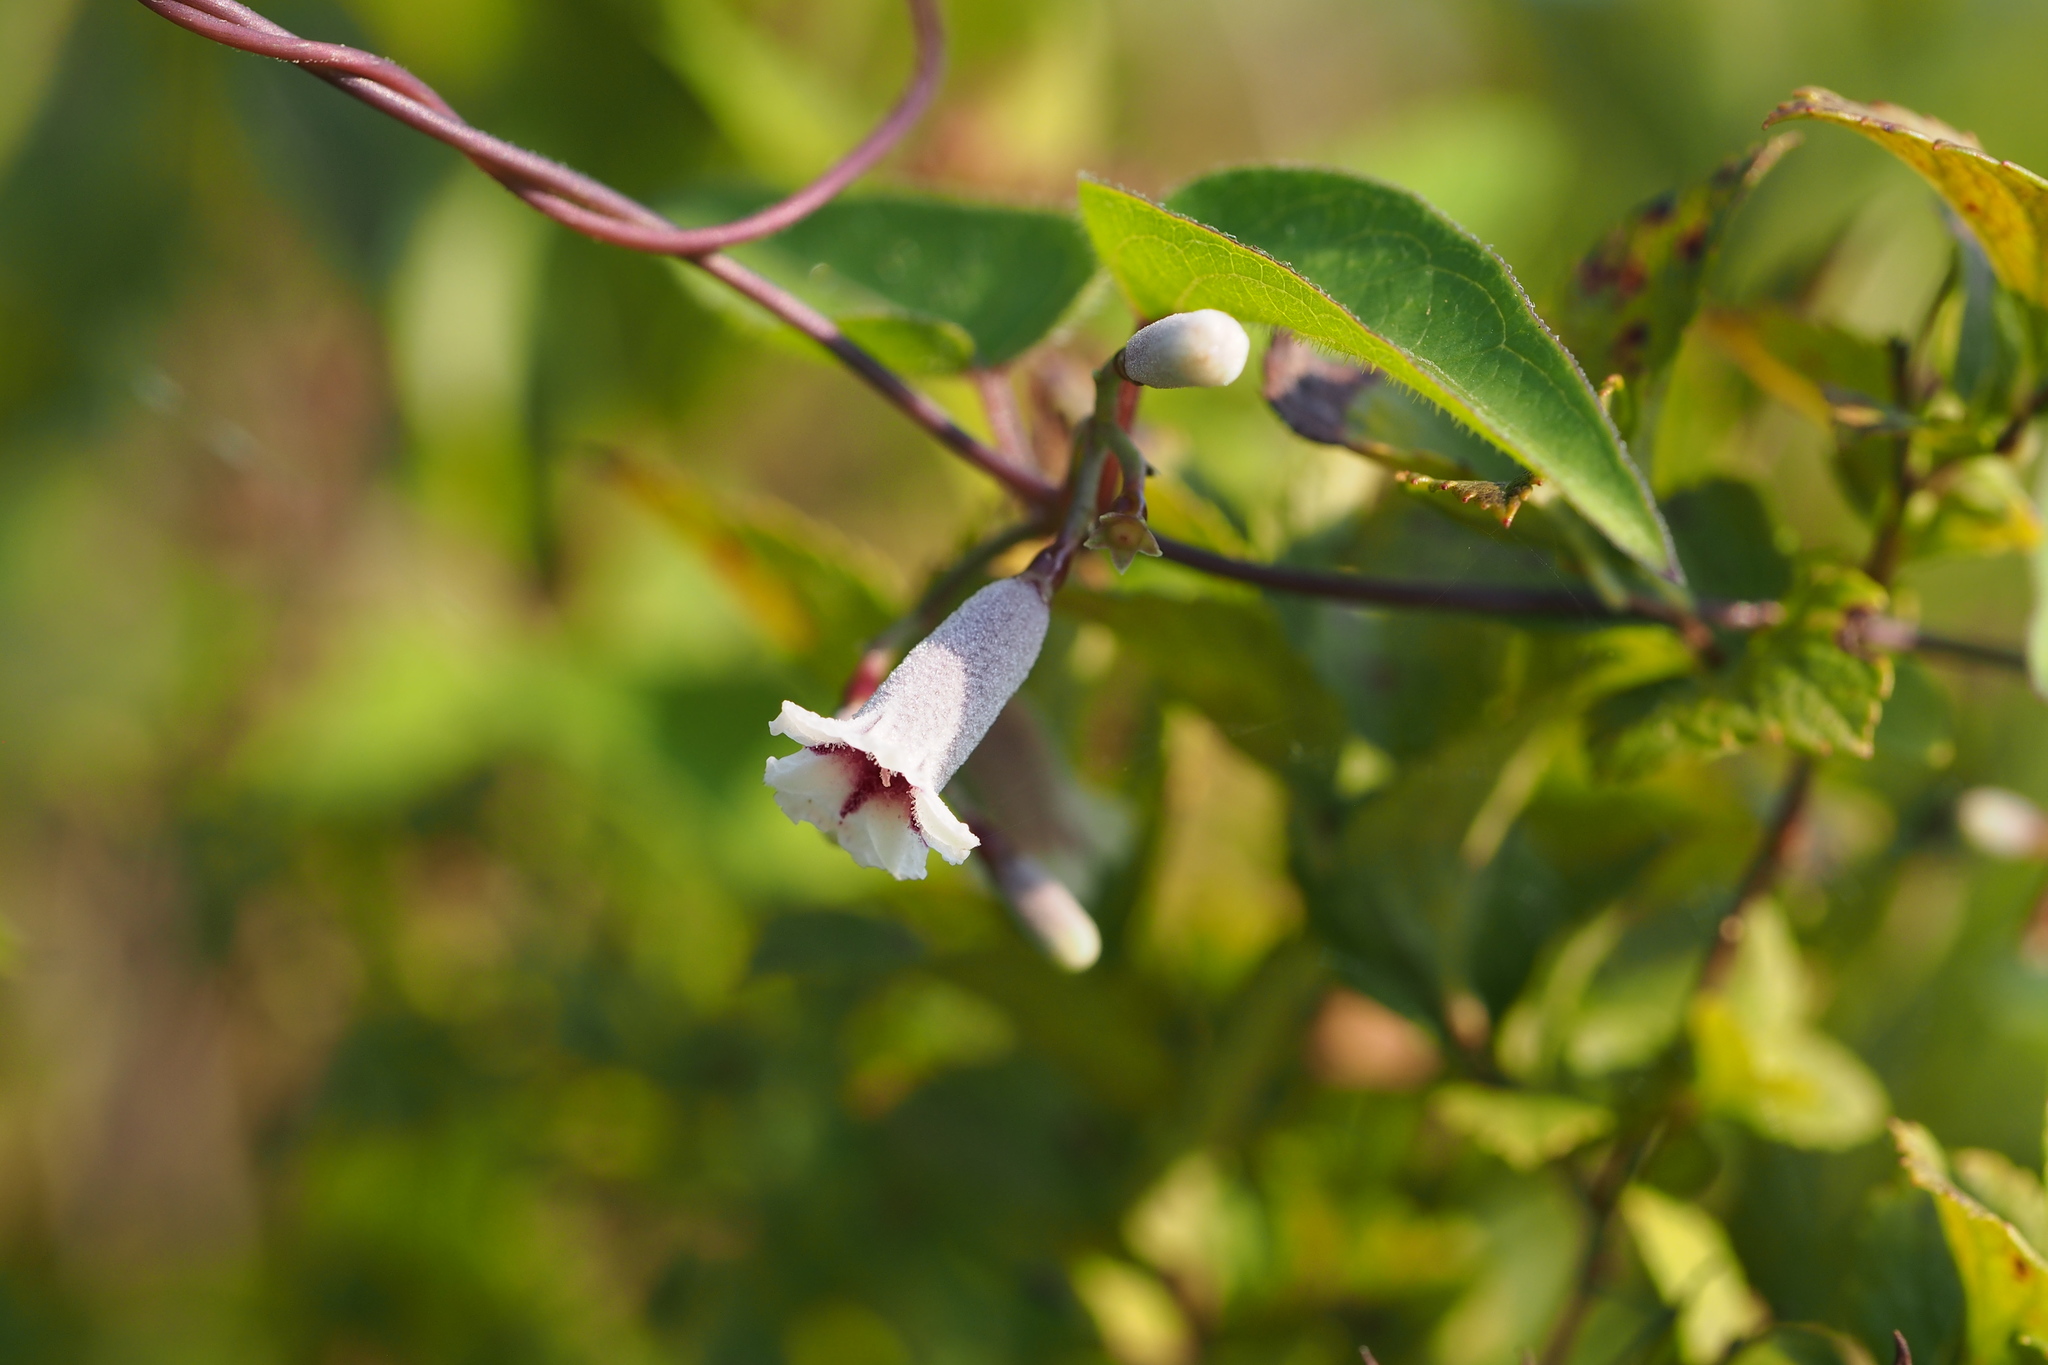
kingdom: Plantae
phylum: Tracheophyta
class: Magnoliopsida
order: Gentianales
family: Rubiaceae
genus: Paederia
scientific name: Paederia foetida
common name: Stinkvine
